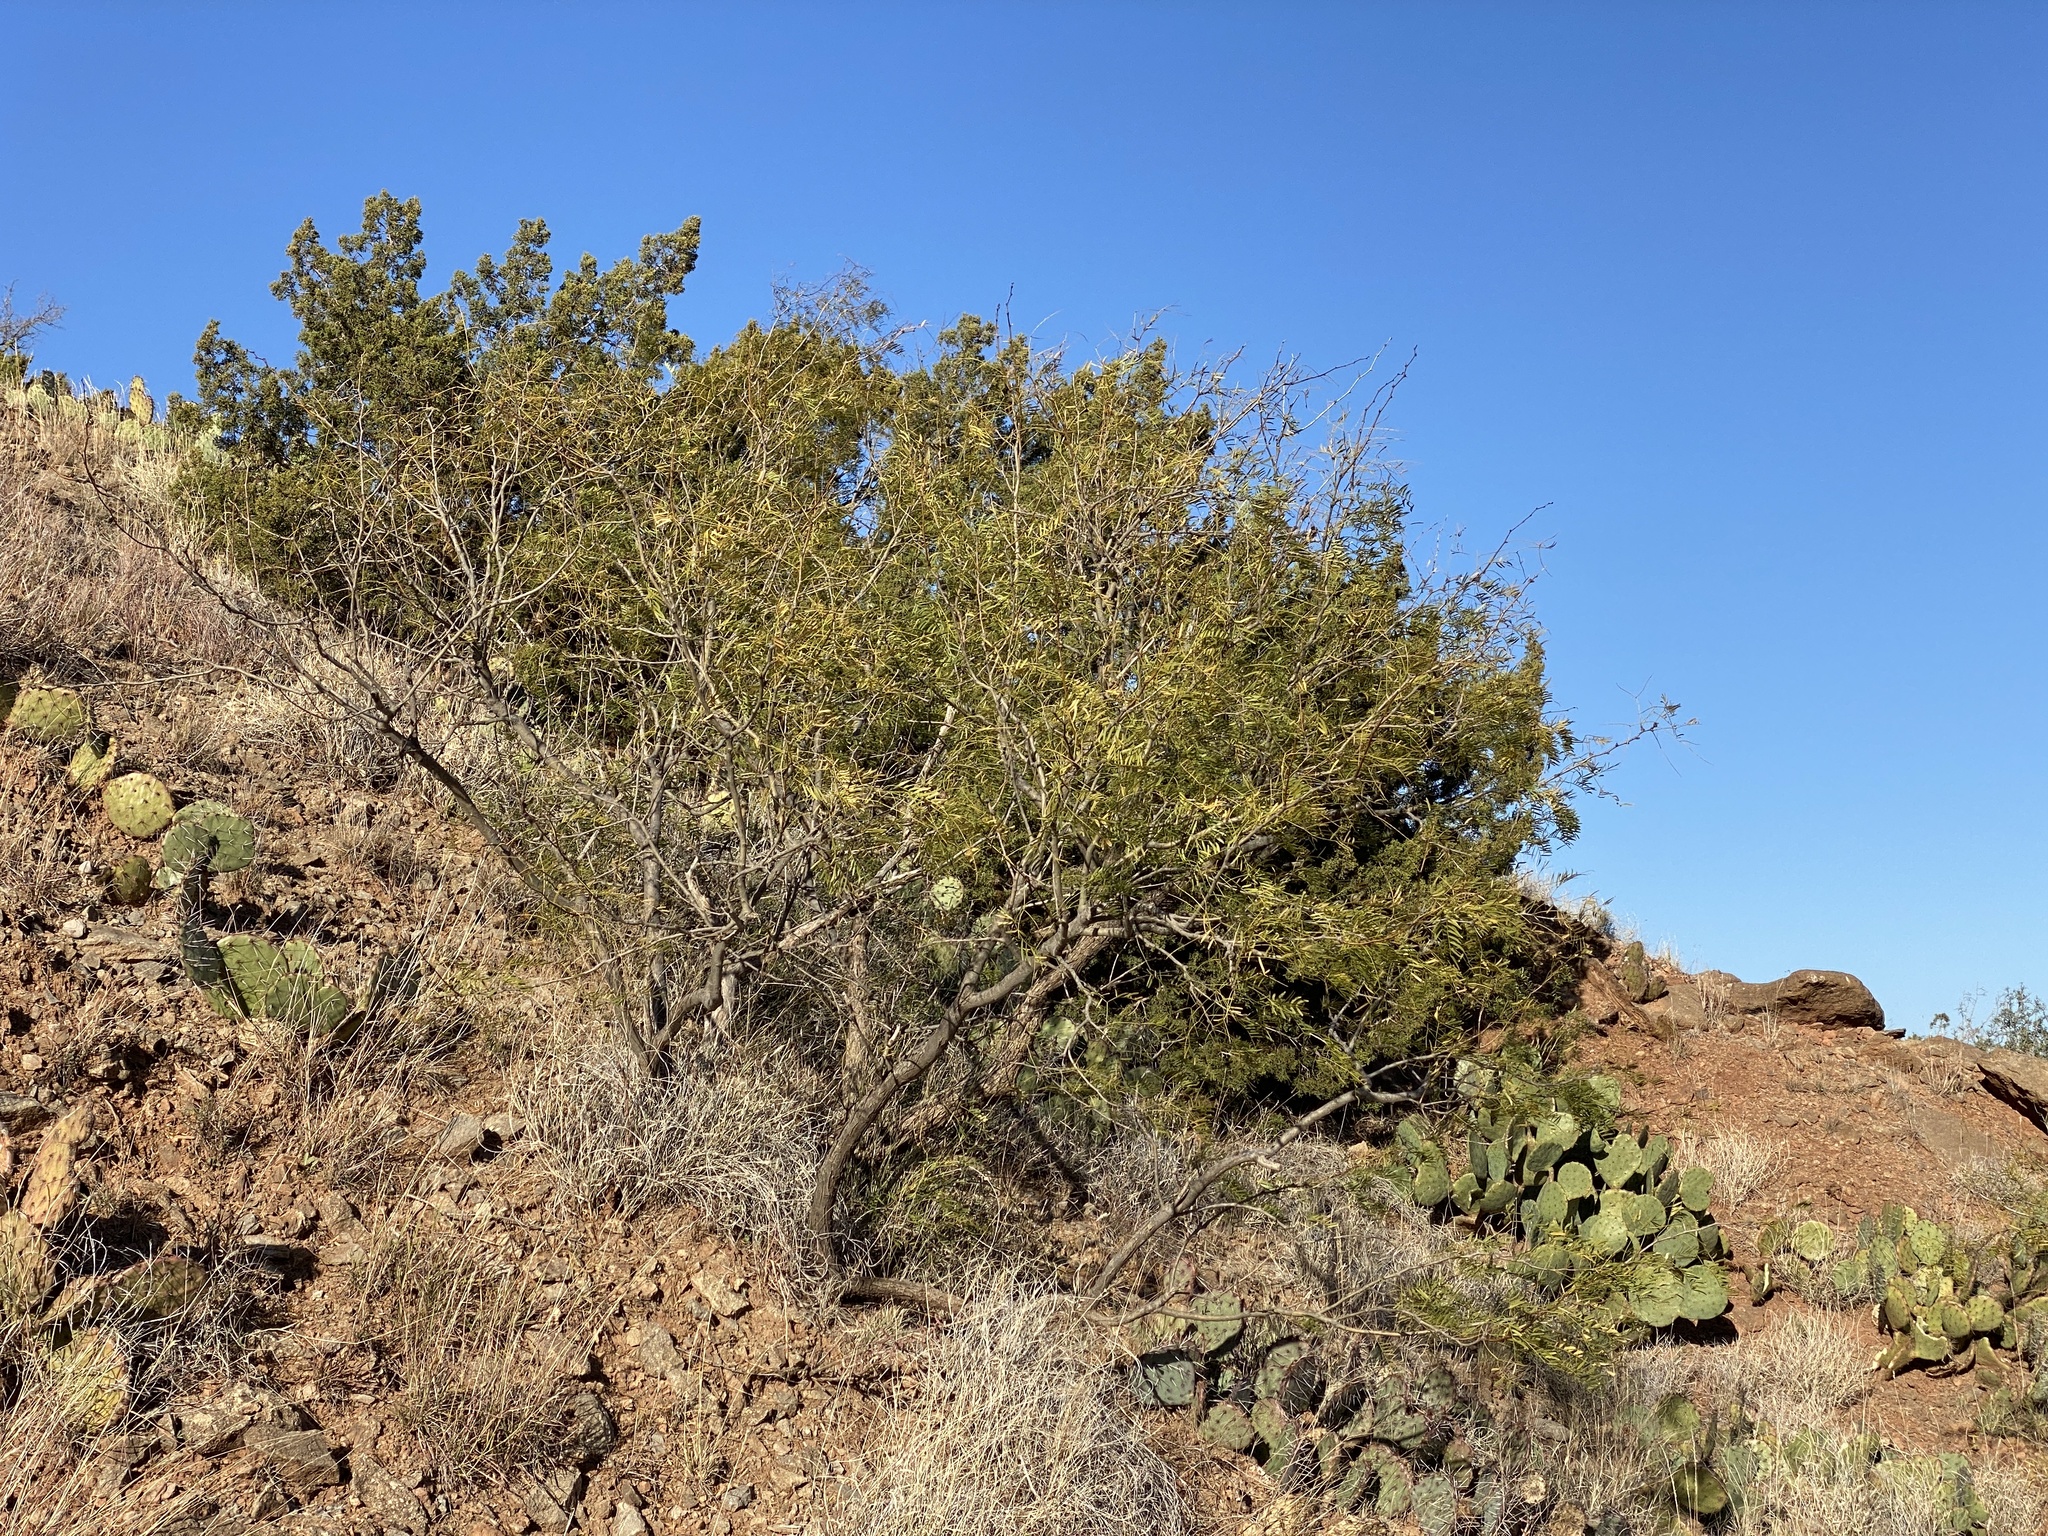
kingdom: Plantae
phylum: Tracheophyta
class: Magnoliopsida
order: Fabales
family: Fabaceae
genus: Prosopis
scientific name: Prosopis glandulosa
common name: Honey mesquite
